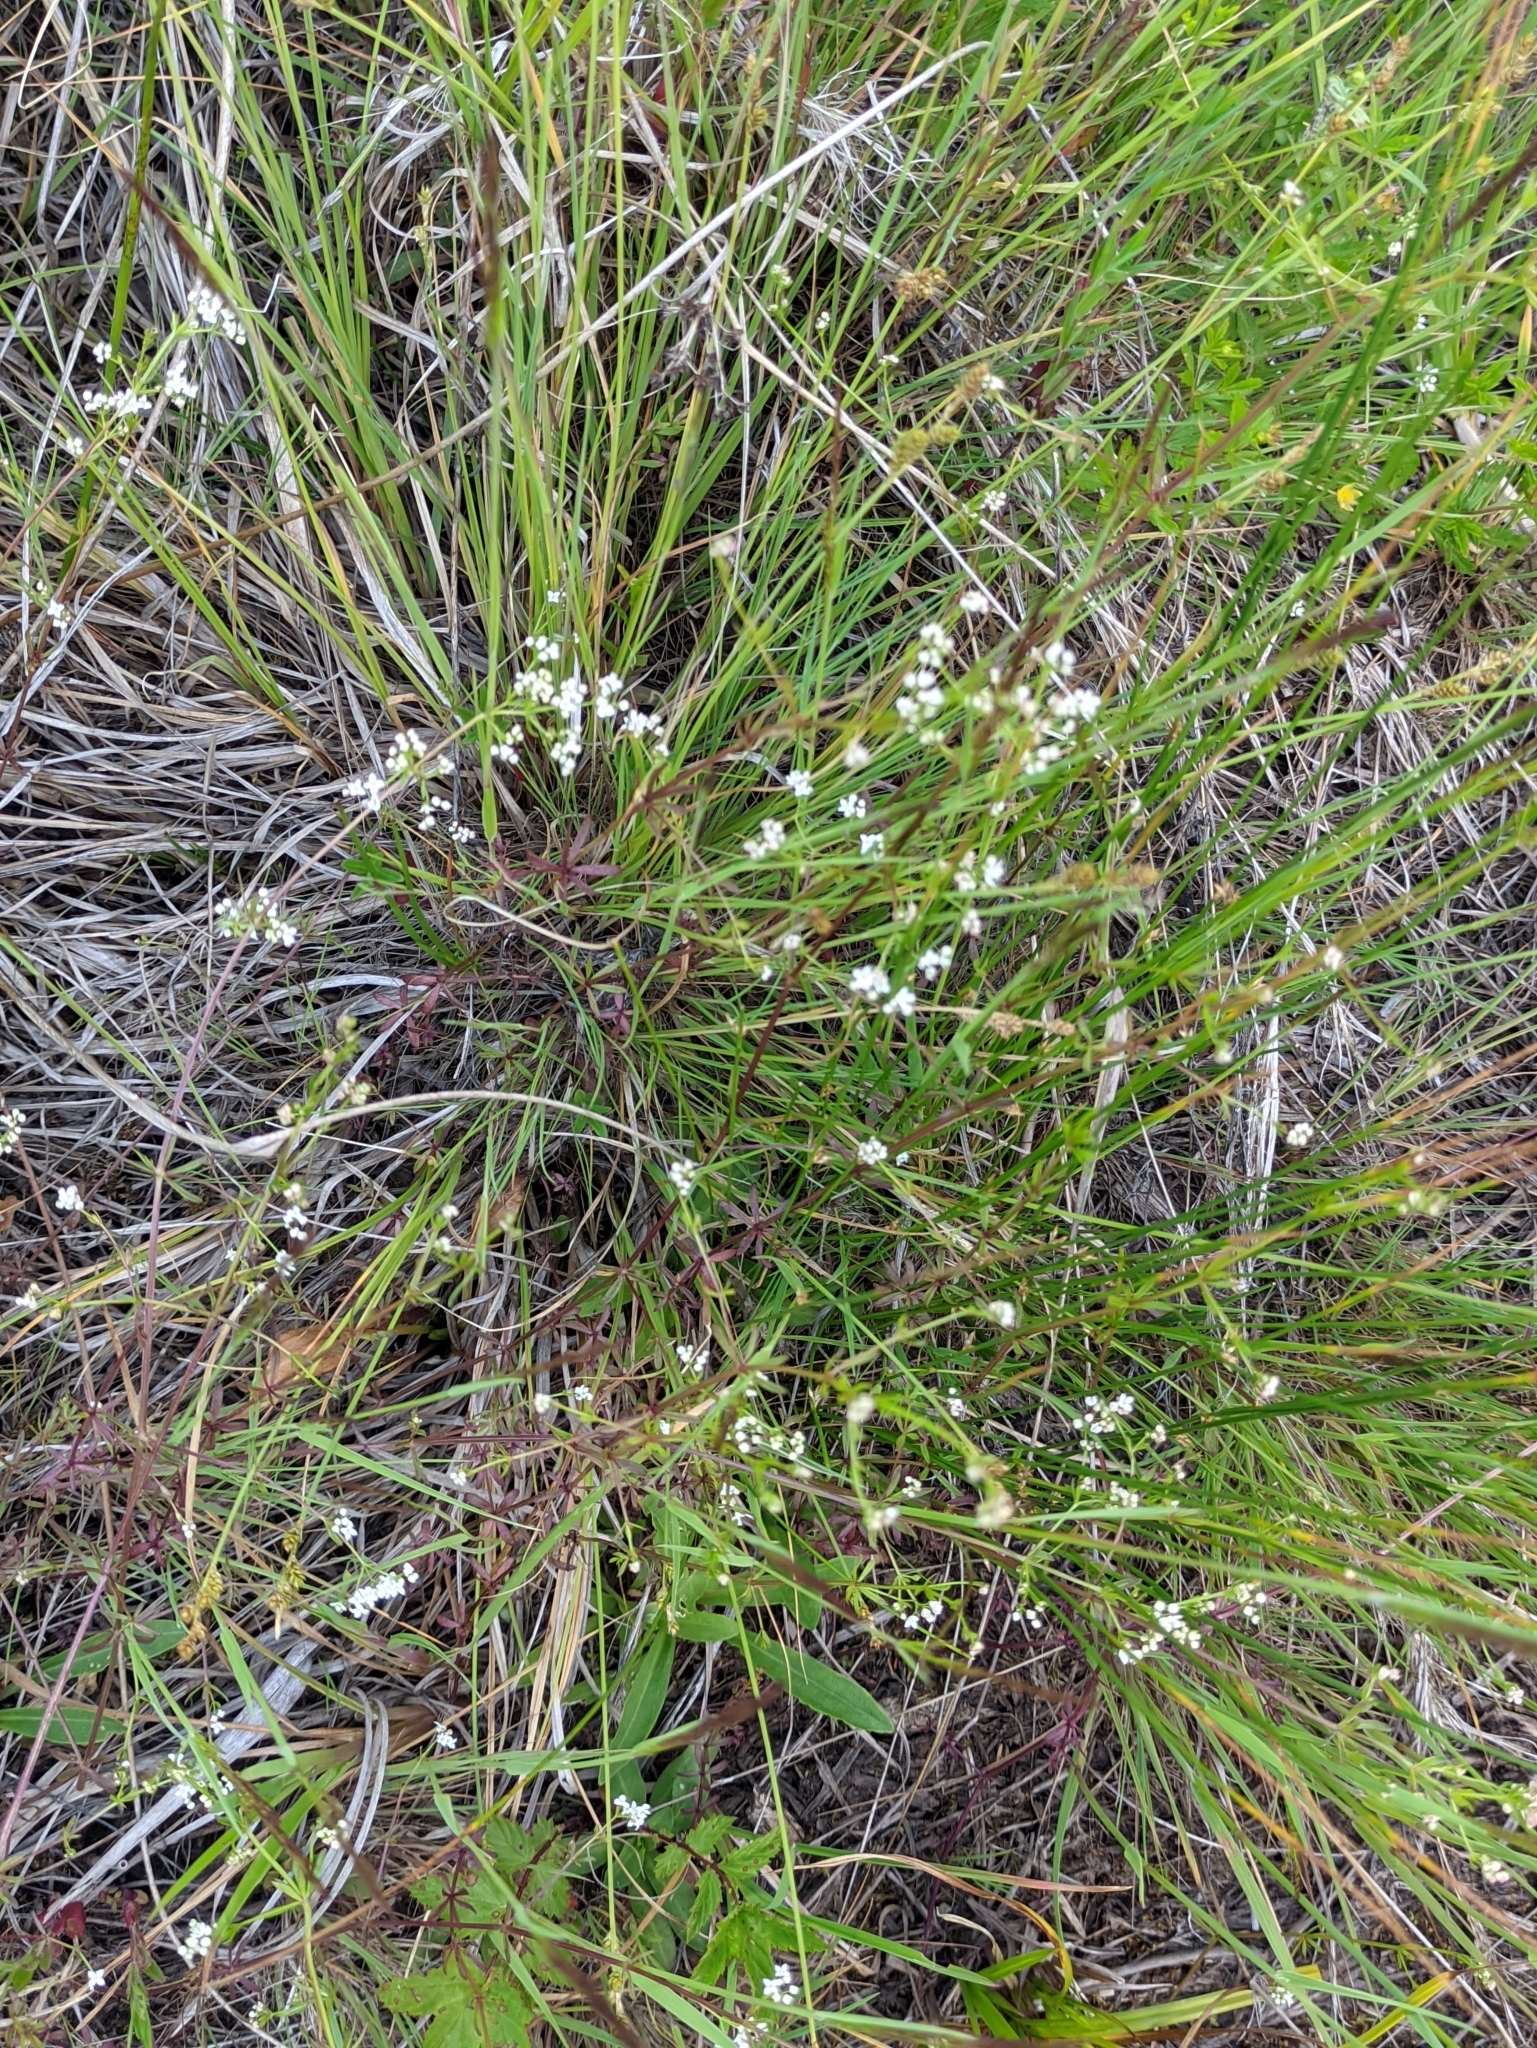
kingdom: Plantae
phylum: Tracheophyta
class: Magnoliopsida
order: Gentianales
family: Rubiaceae
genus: Galium
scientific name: Galium palustre
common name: Common marsh-bedstraw
